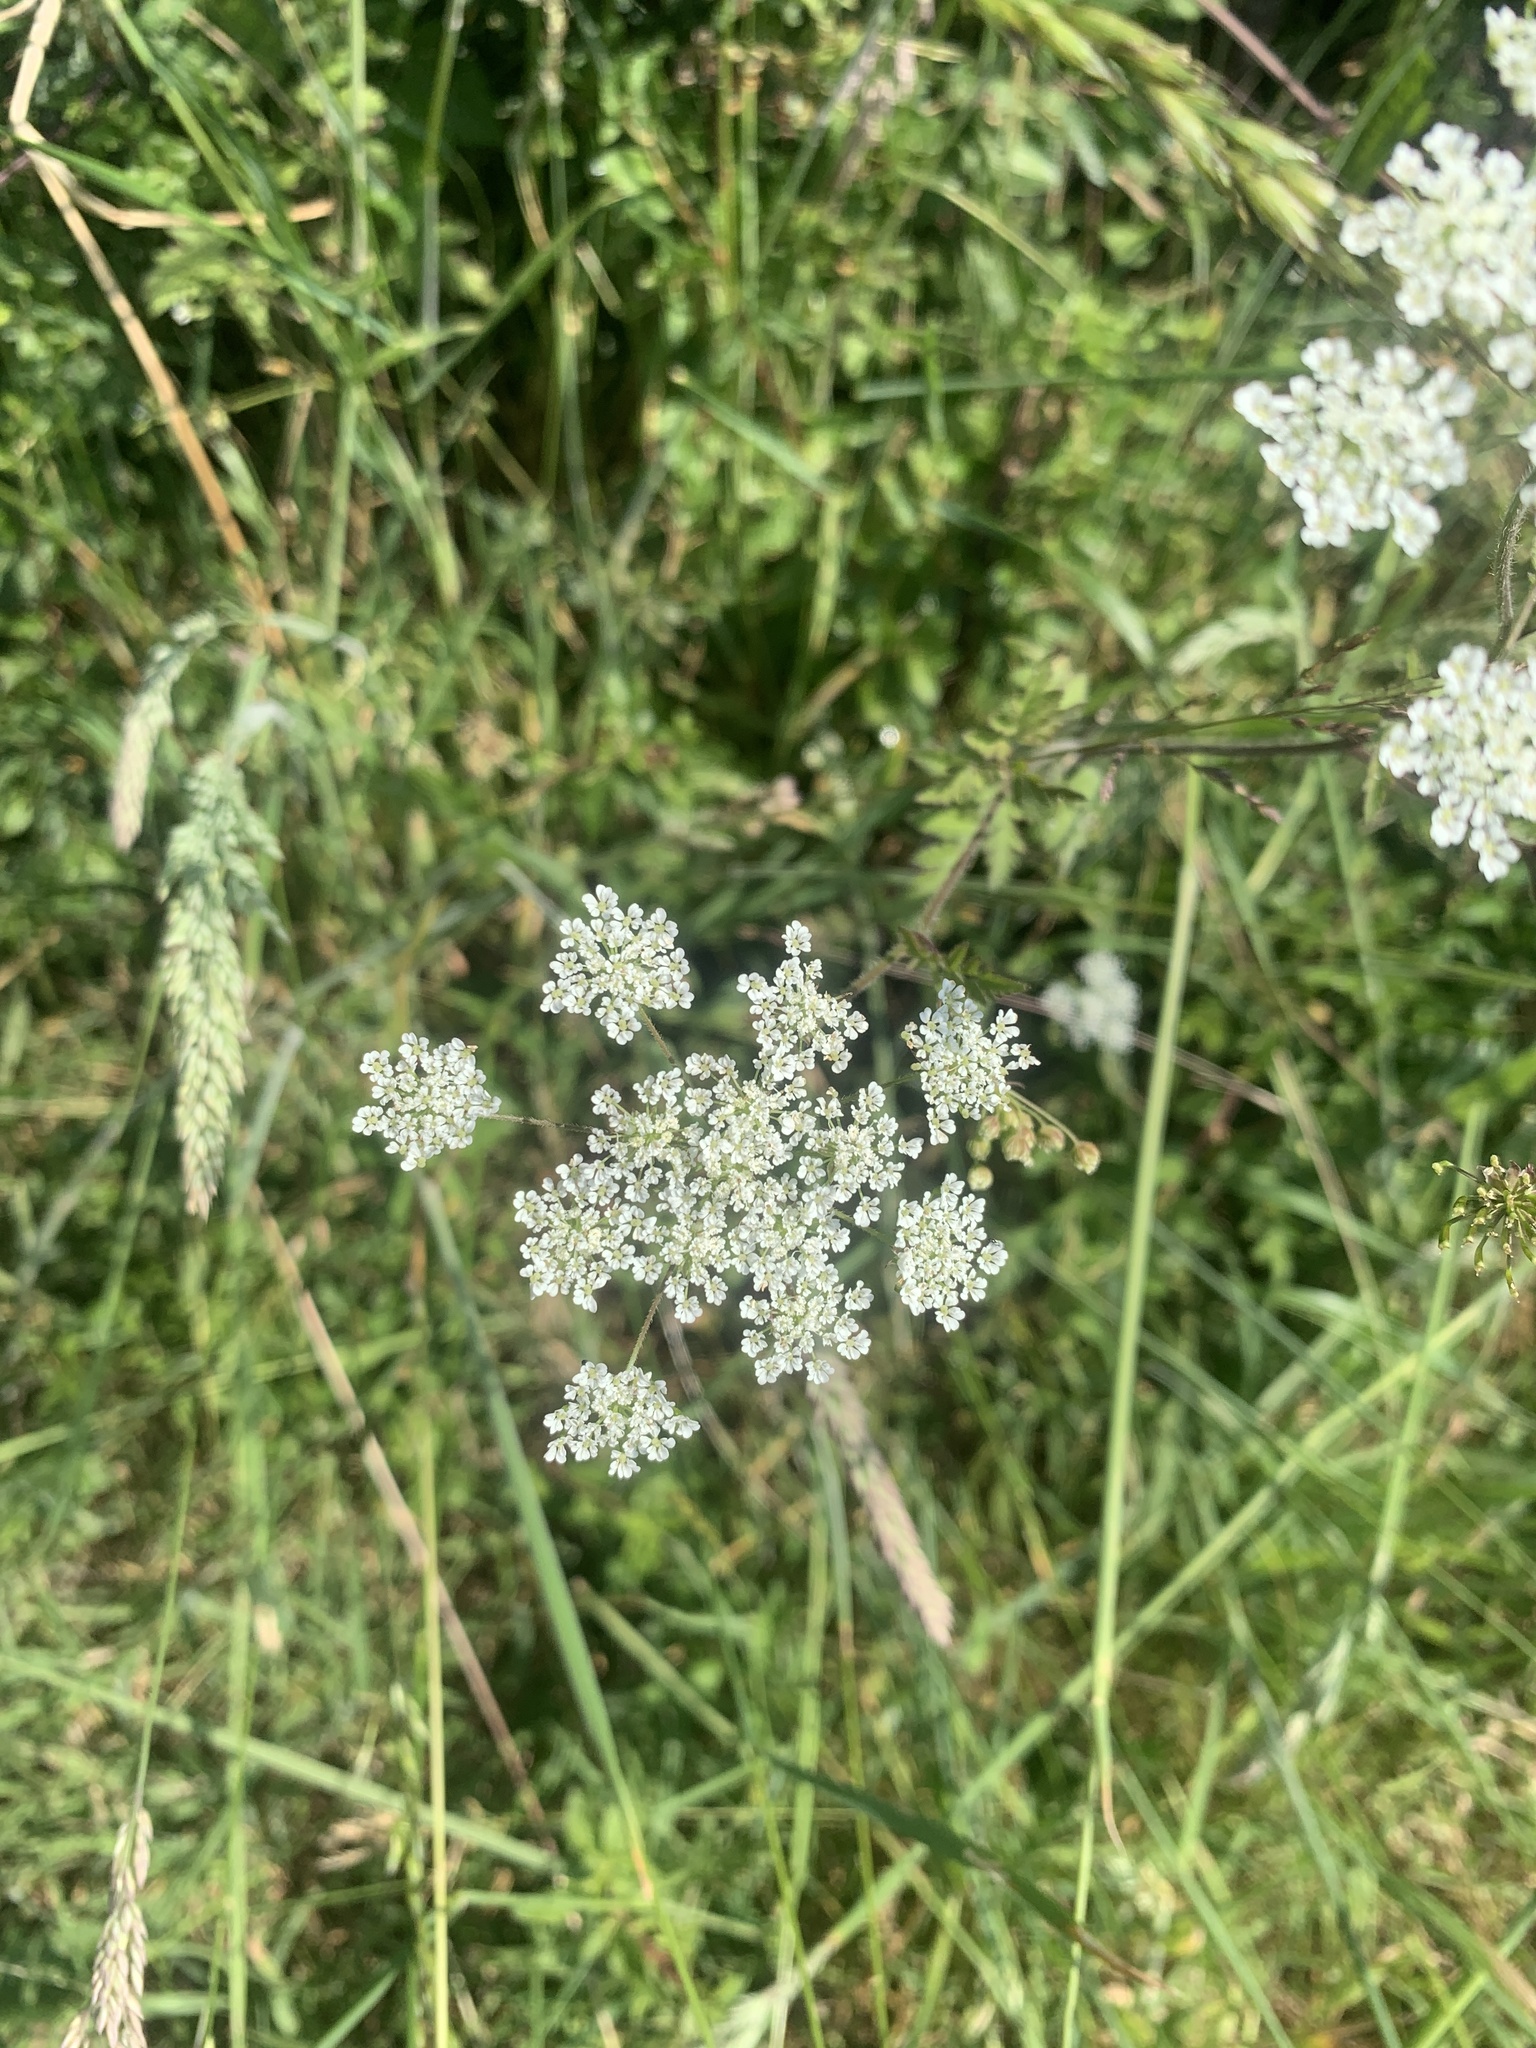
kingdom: Plantae
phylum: Tracheophyta
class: Magnoliopsida
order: Apiales
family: Apiaceae
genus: Daucus
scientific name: Daucus carota
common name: Wild carrot
